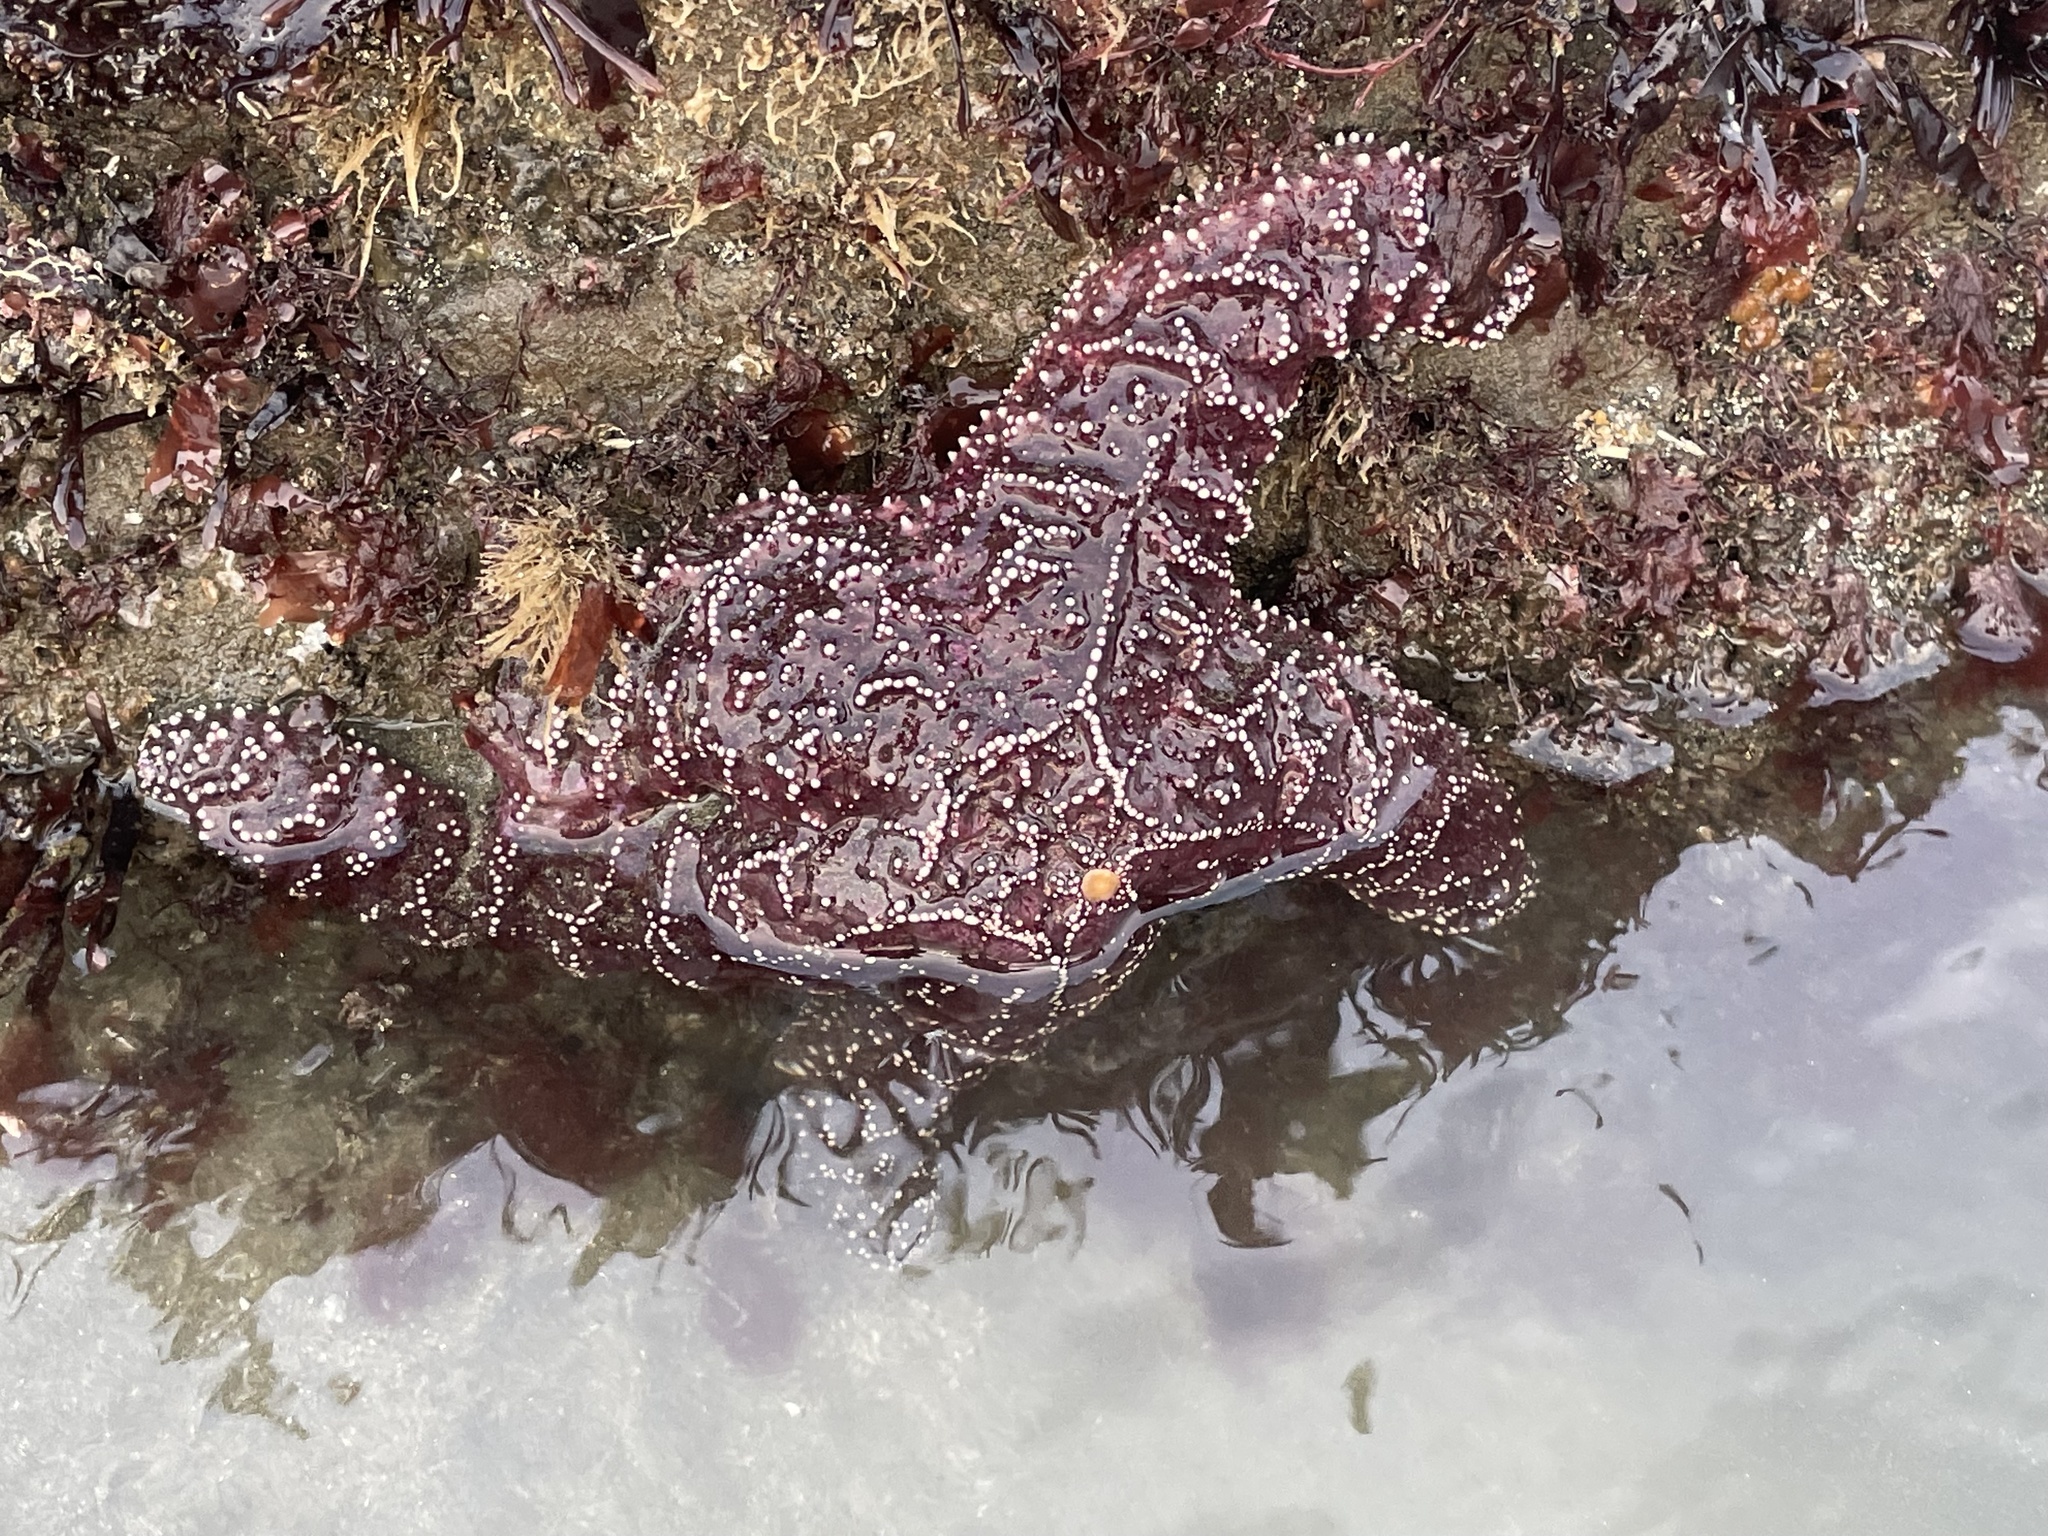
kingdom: Animalia
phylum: Echinodermata
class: Asteroidea
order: Forcipulatida
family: Asteriidae
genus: Pisaster
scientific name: Pisaster ochraceus
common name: Ochre stars
